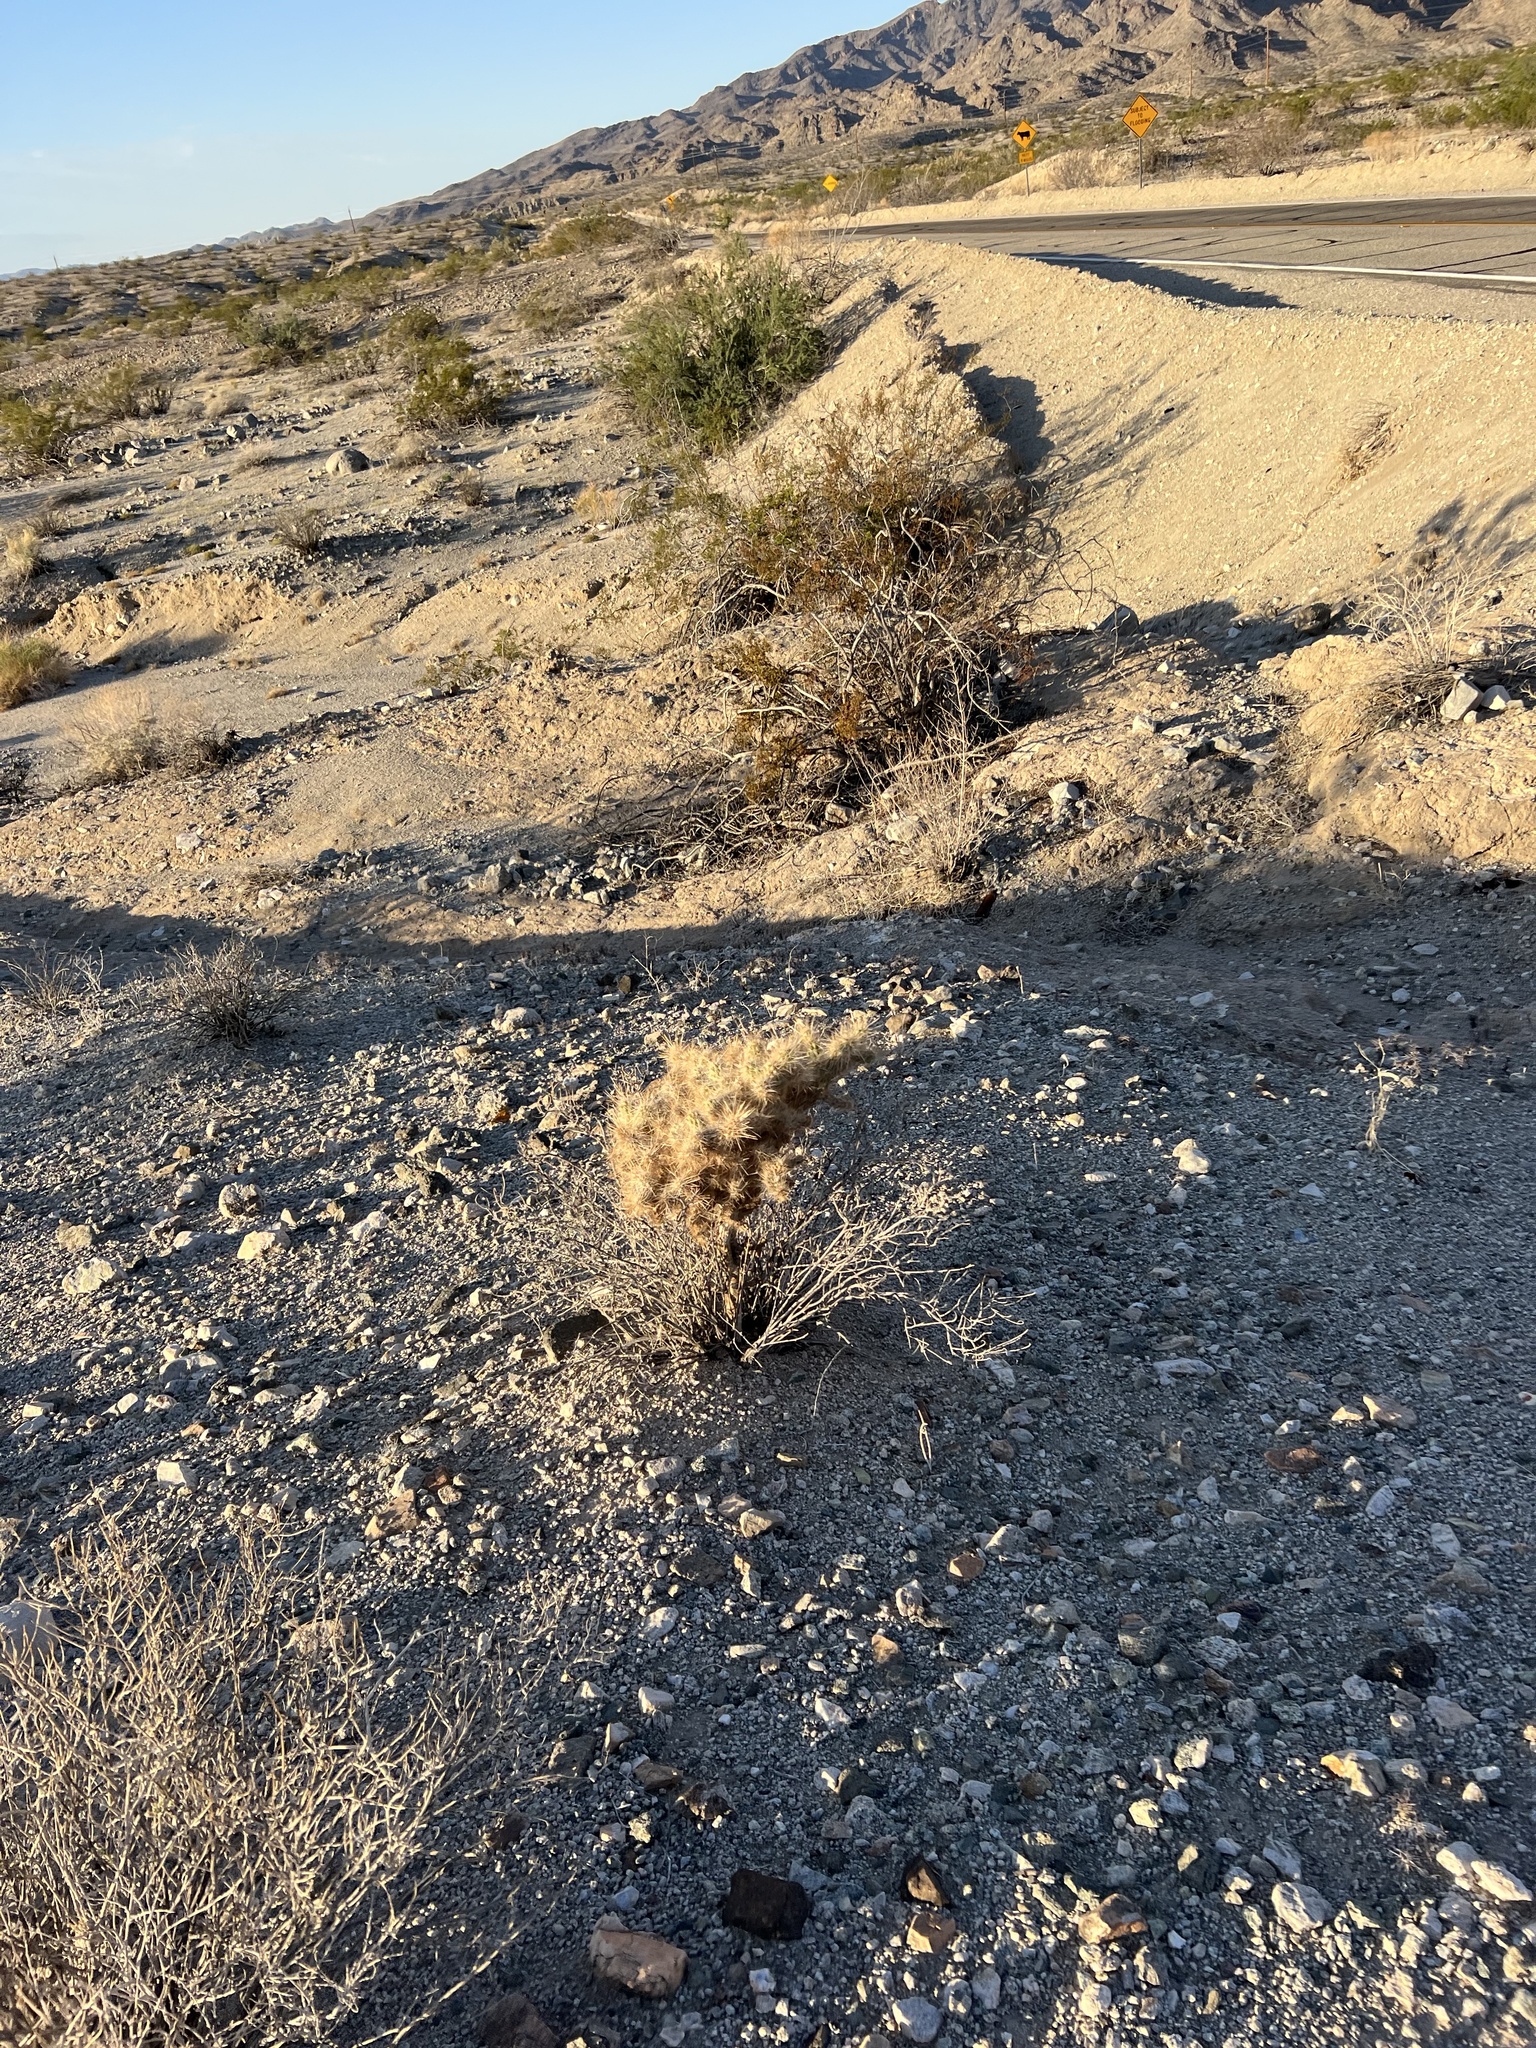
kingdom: Plantae
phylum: Tracheophyta
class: Magnoliopsida
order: Caryophyllales
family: Cactaceae
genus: Cylindropuntia
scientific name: Cylindropuntia echinocarpa
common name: Ground cholla
